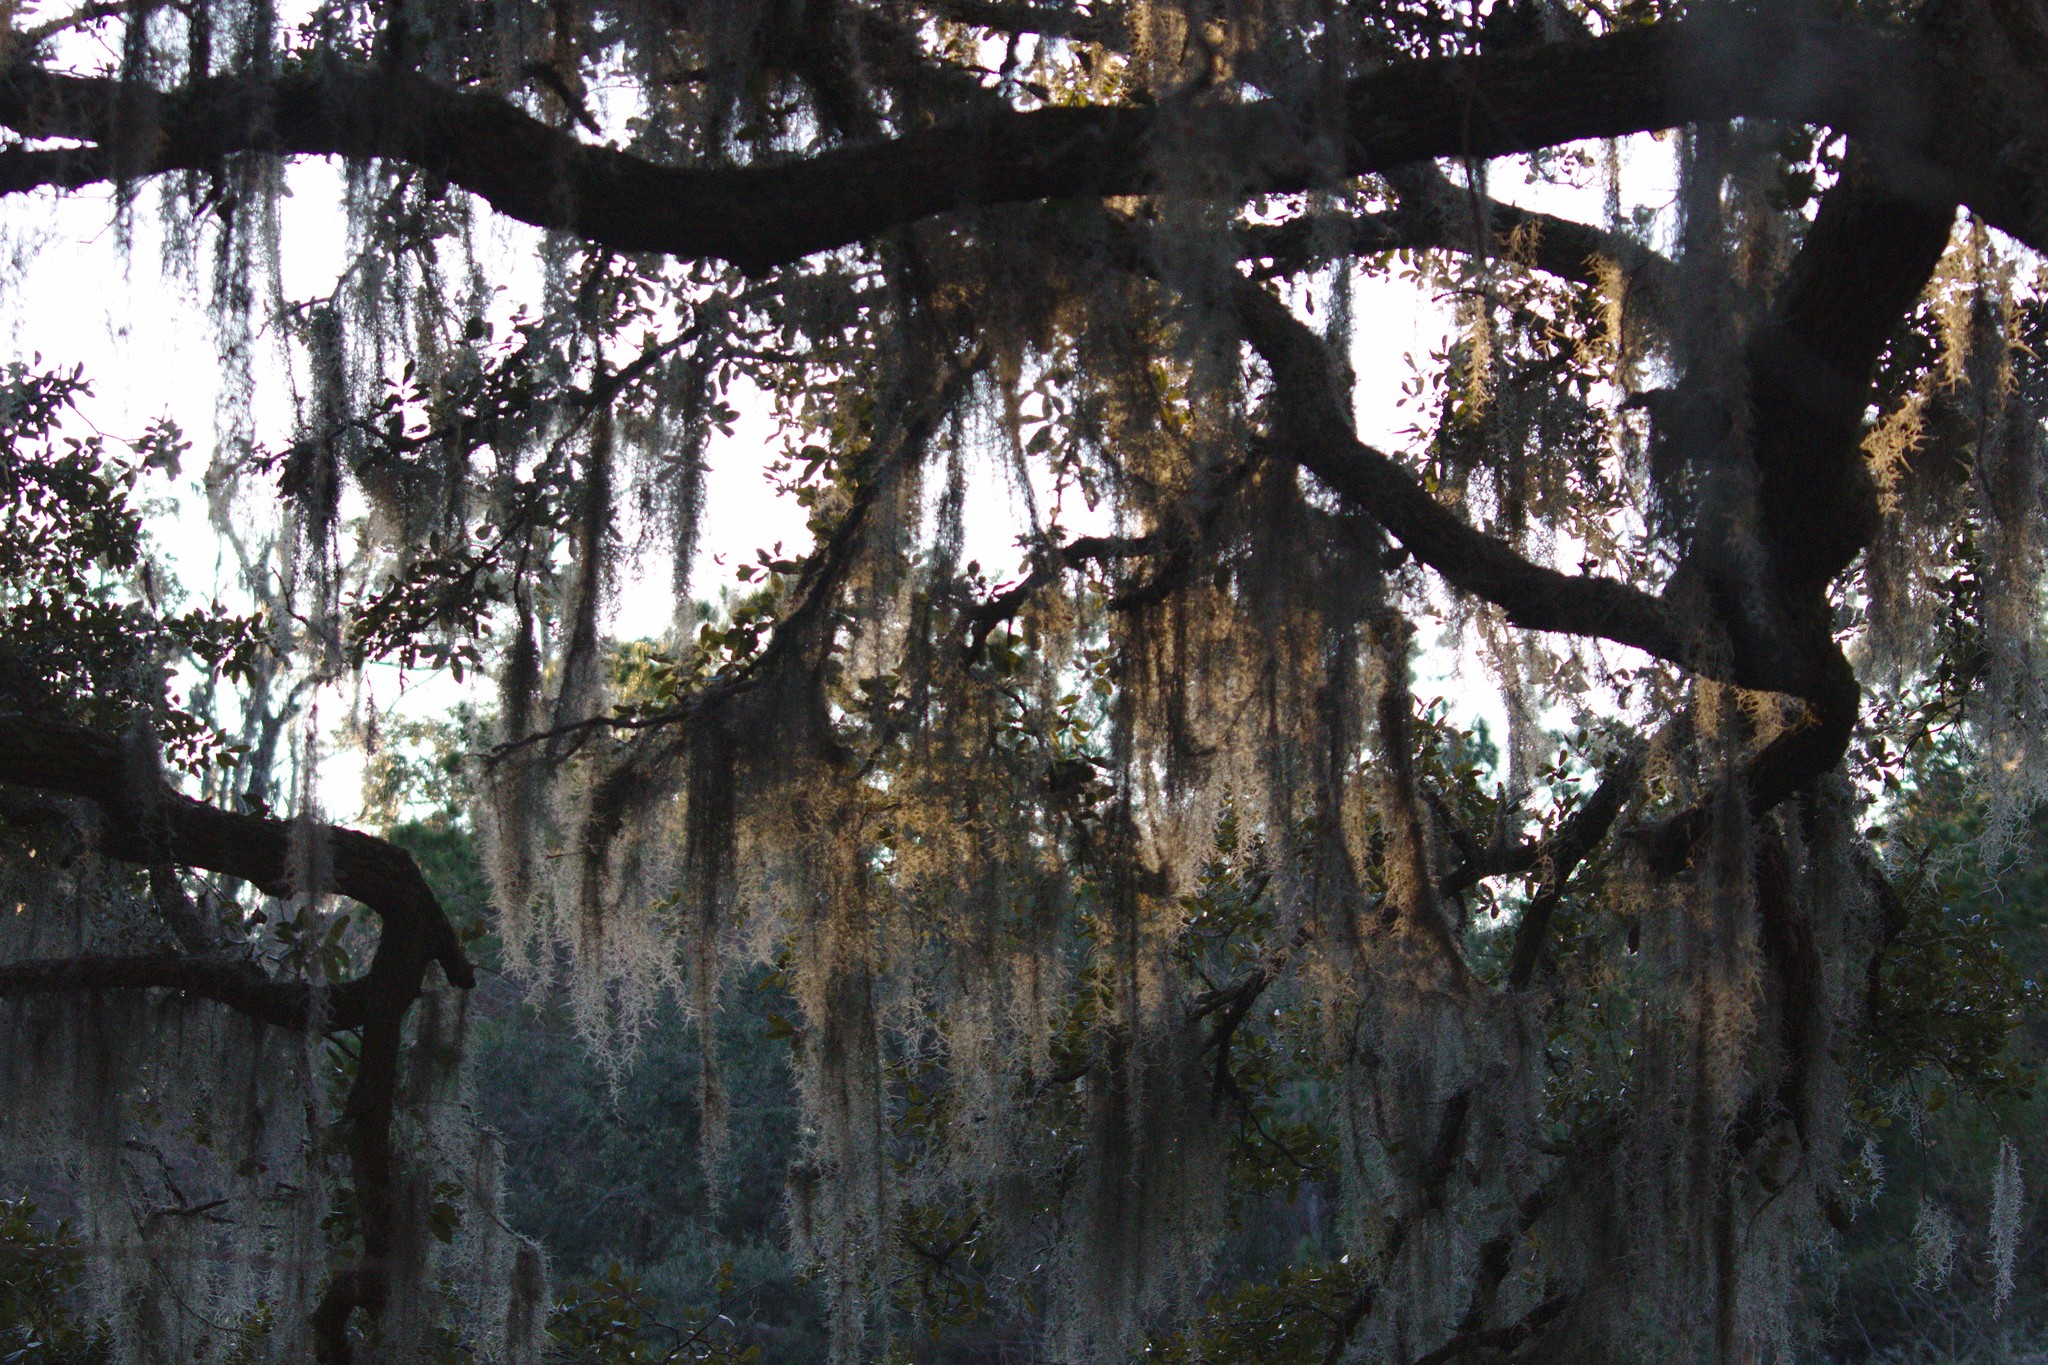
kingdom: Plantae
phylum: Tracheophyta
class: Liliopsida
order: Poales
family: Bromeliaceae
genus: Tillandsia
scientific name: Tillandsia usneoides
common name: Spanish moss
